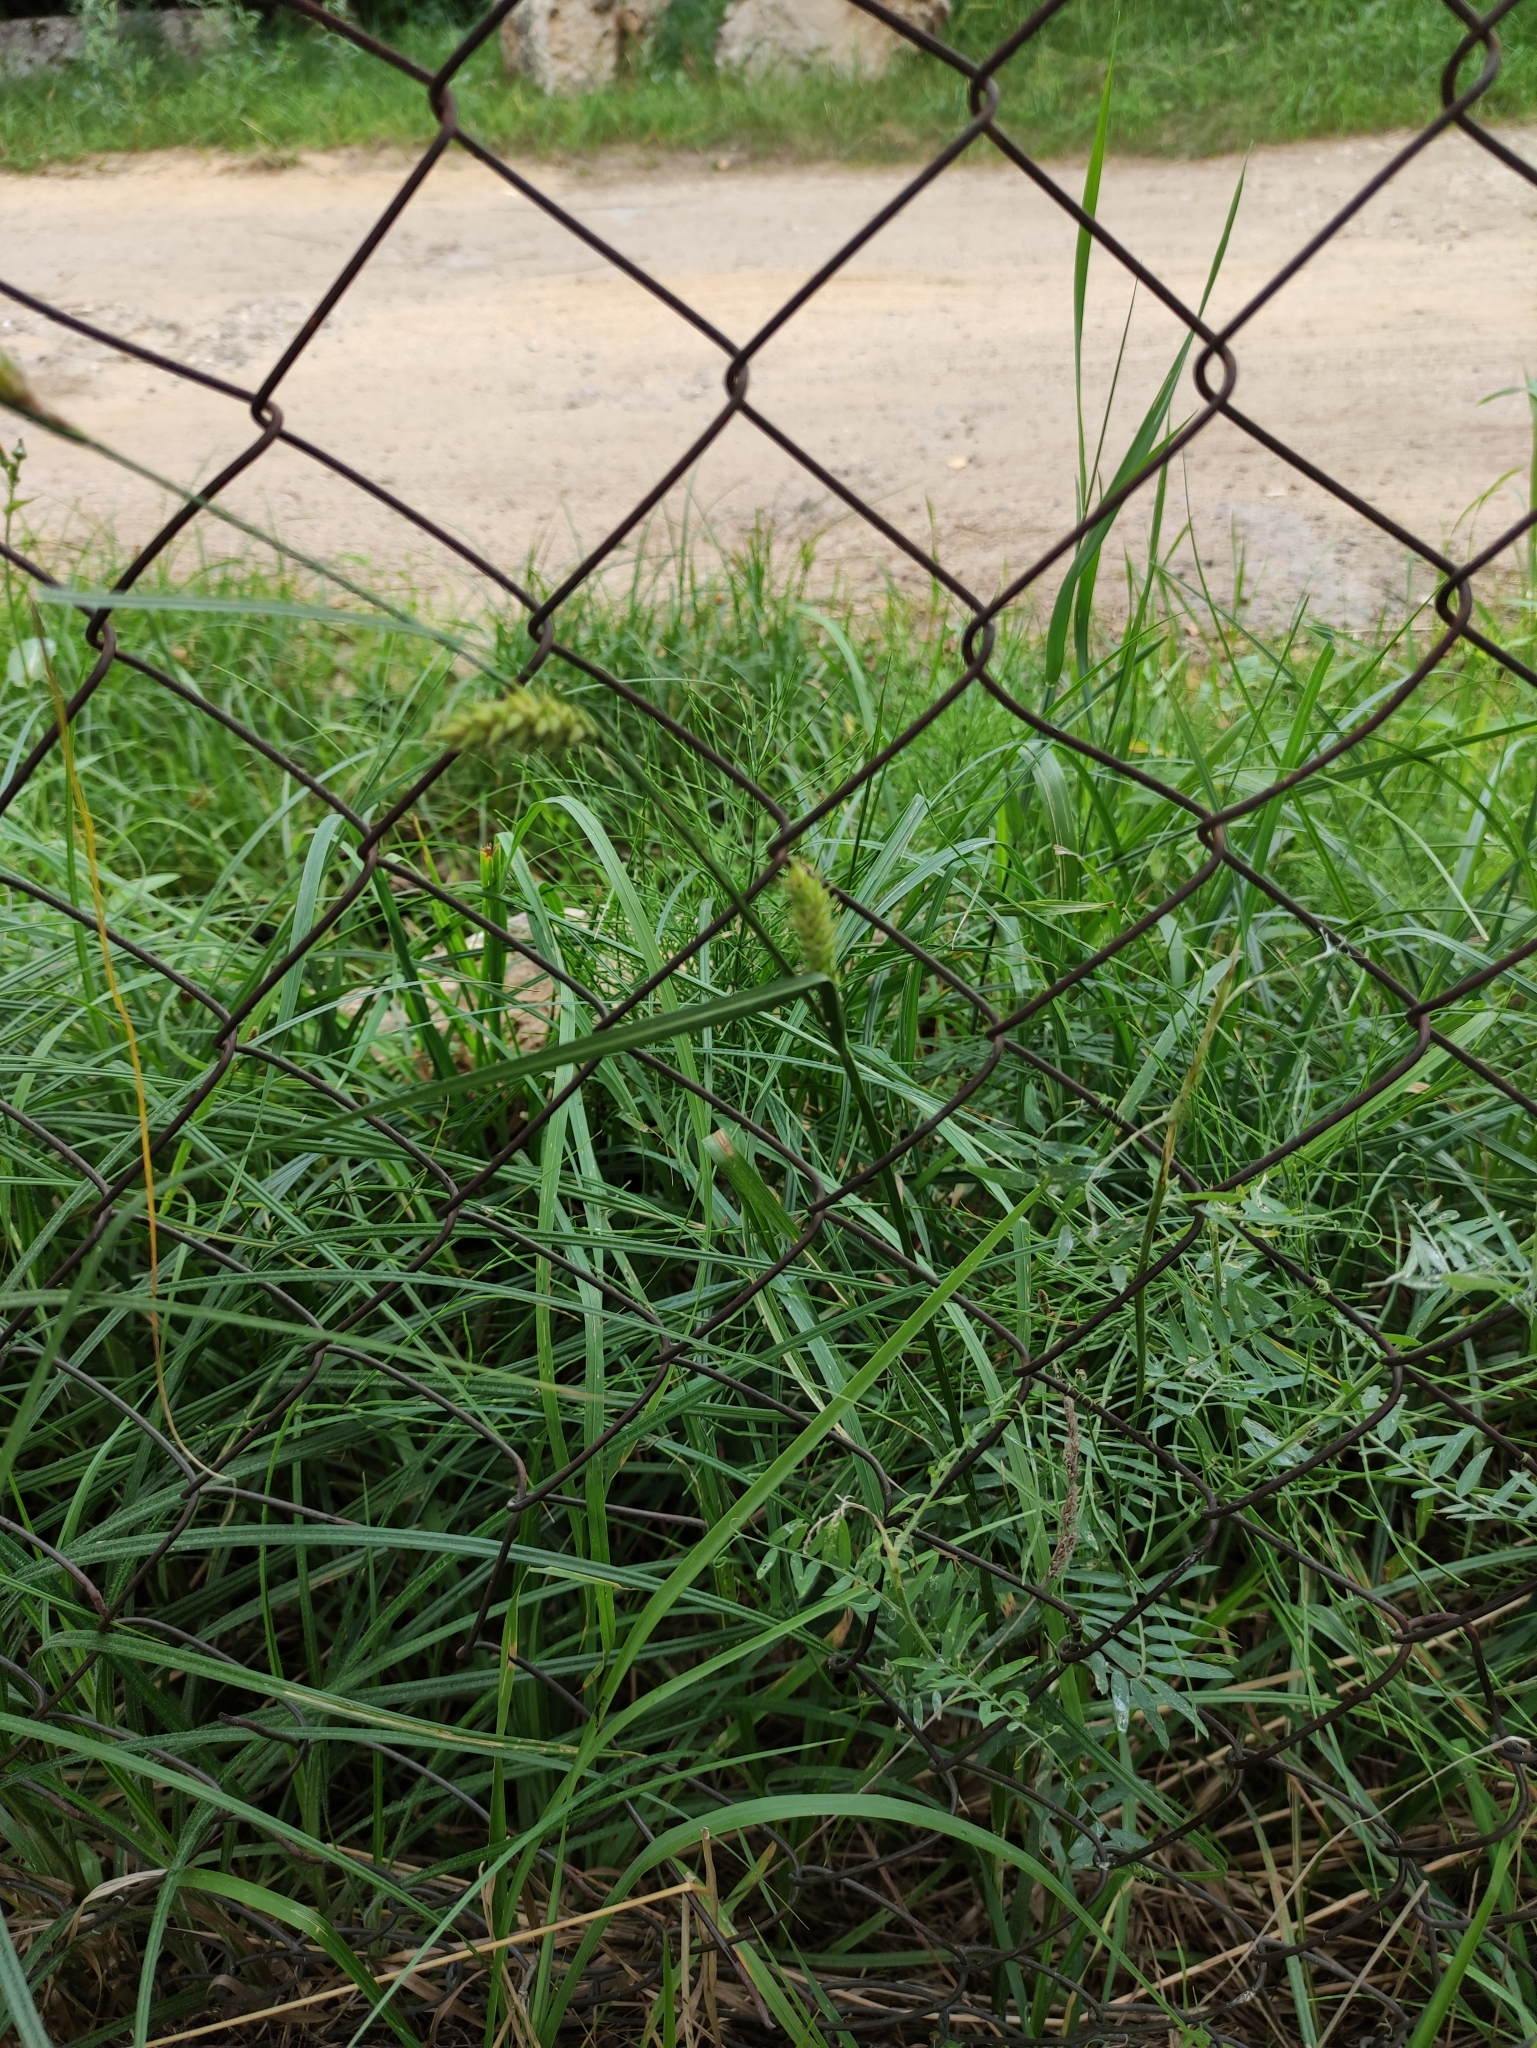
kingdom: Plantae
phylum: Tracheophyta
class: Liliopsida
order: Poales
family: Cyperaceae
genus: Carex
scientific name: Carex hirta
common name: Hairy sedge
